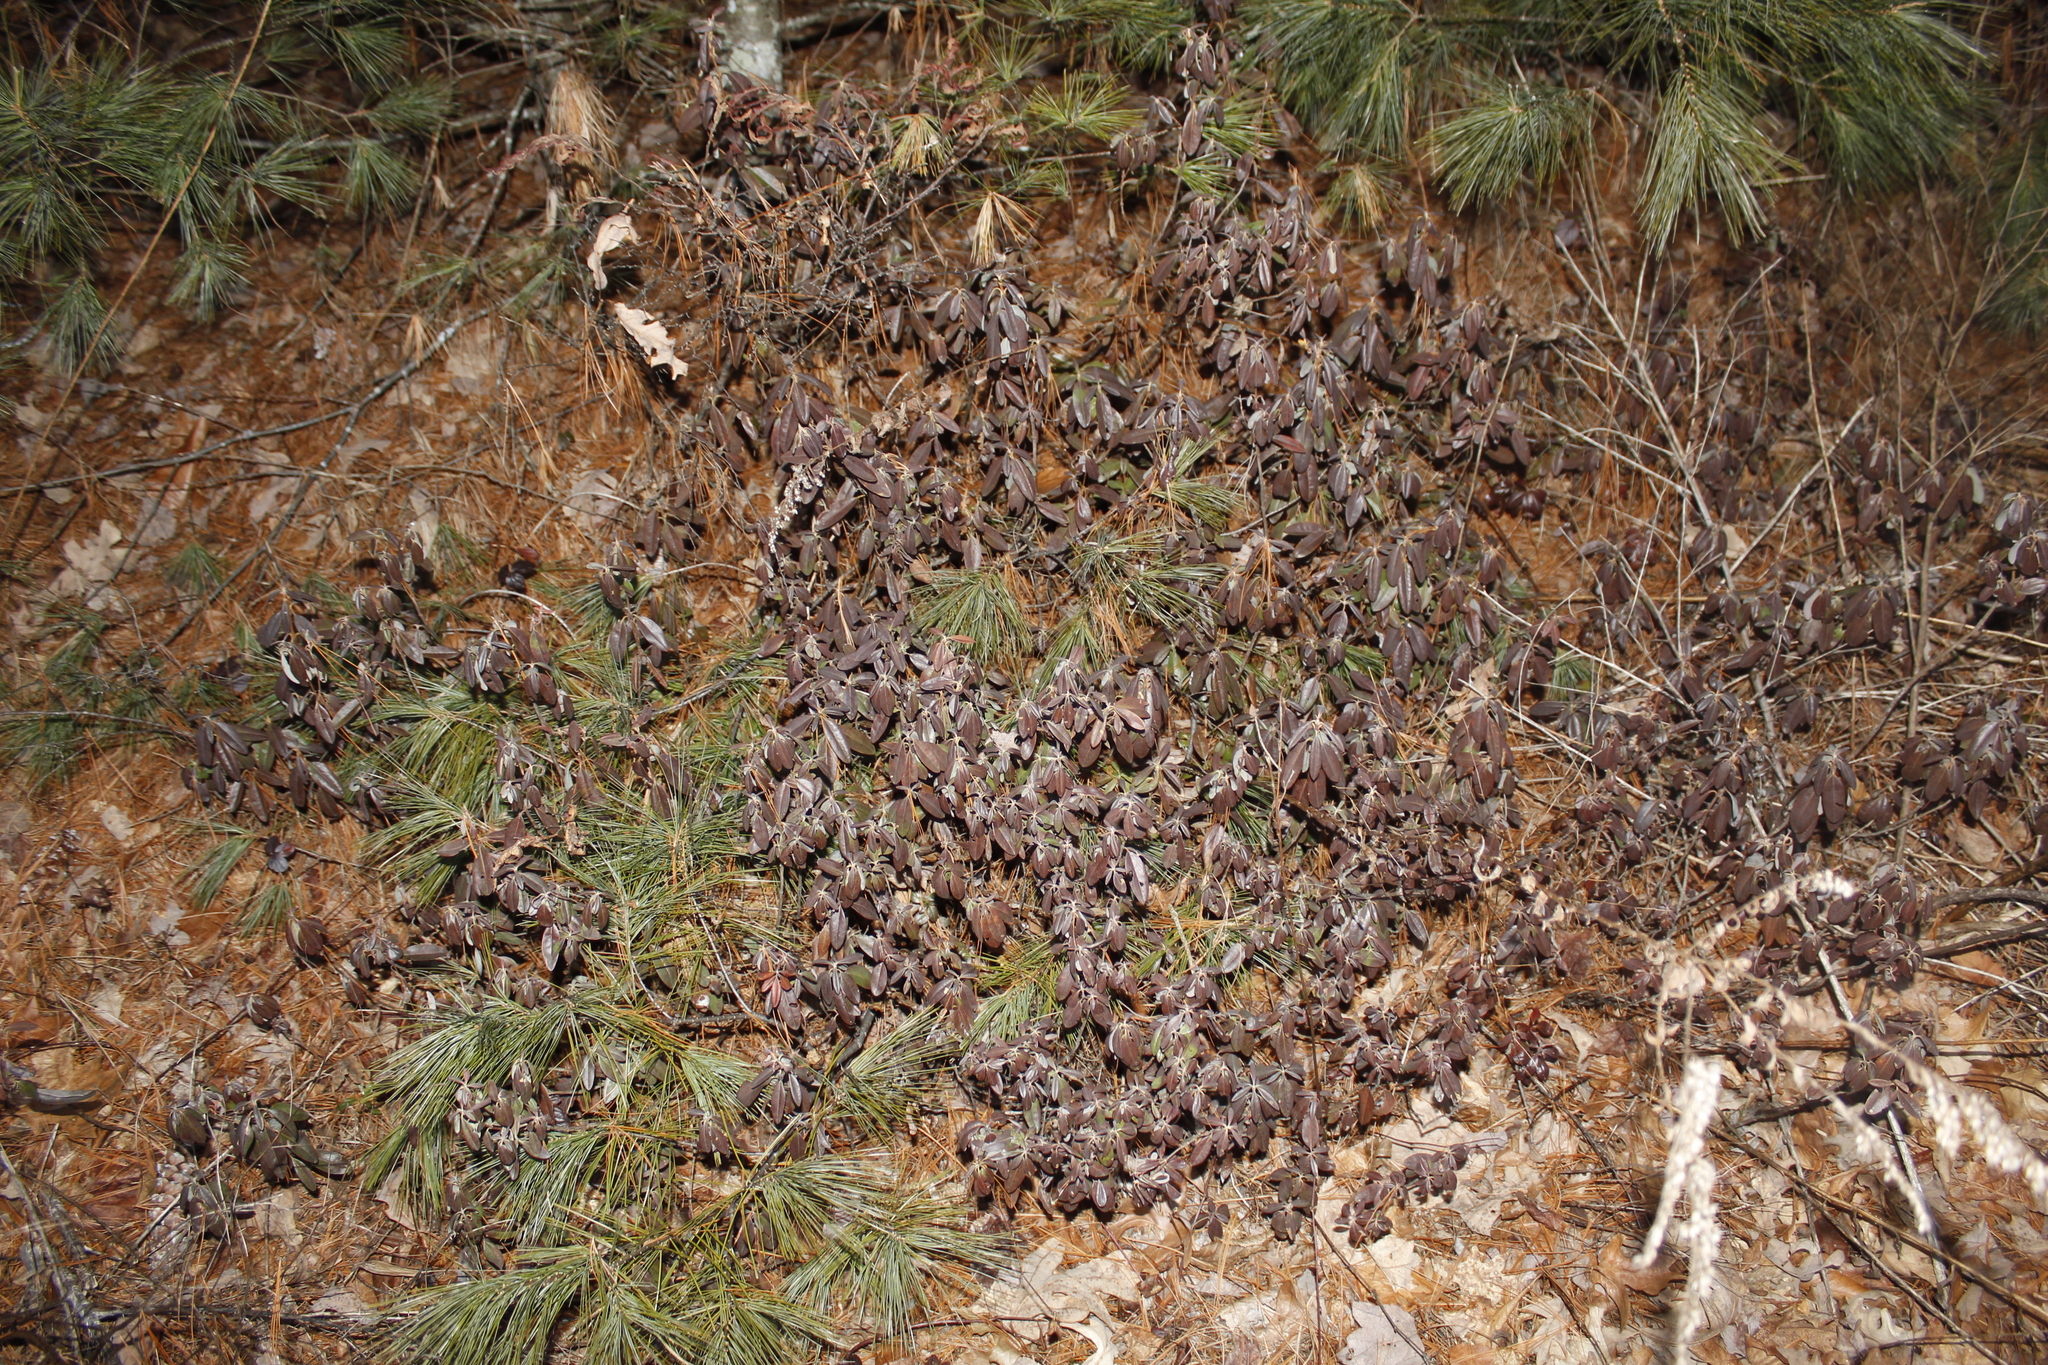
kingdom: Plantae
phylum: Tracheophyta
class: Magnoliopsida
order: Ericales
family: Ericaceae
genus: Kalmia
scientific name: Kalmia angustifolia
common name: Sheep-laurel
